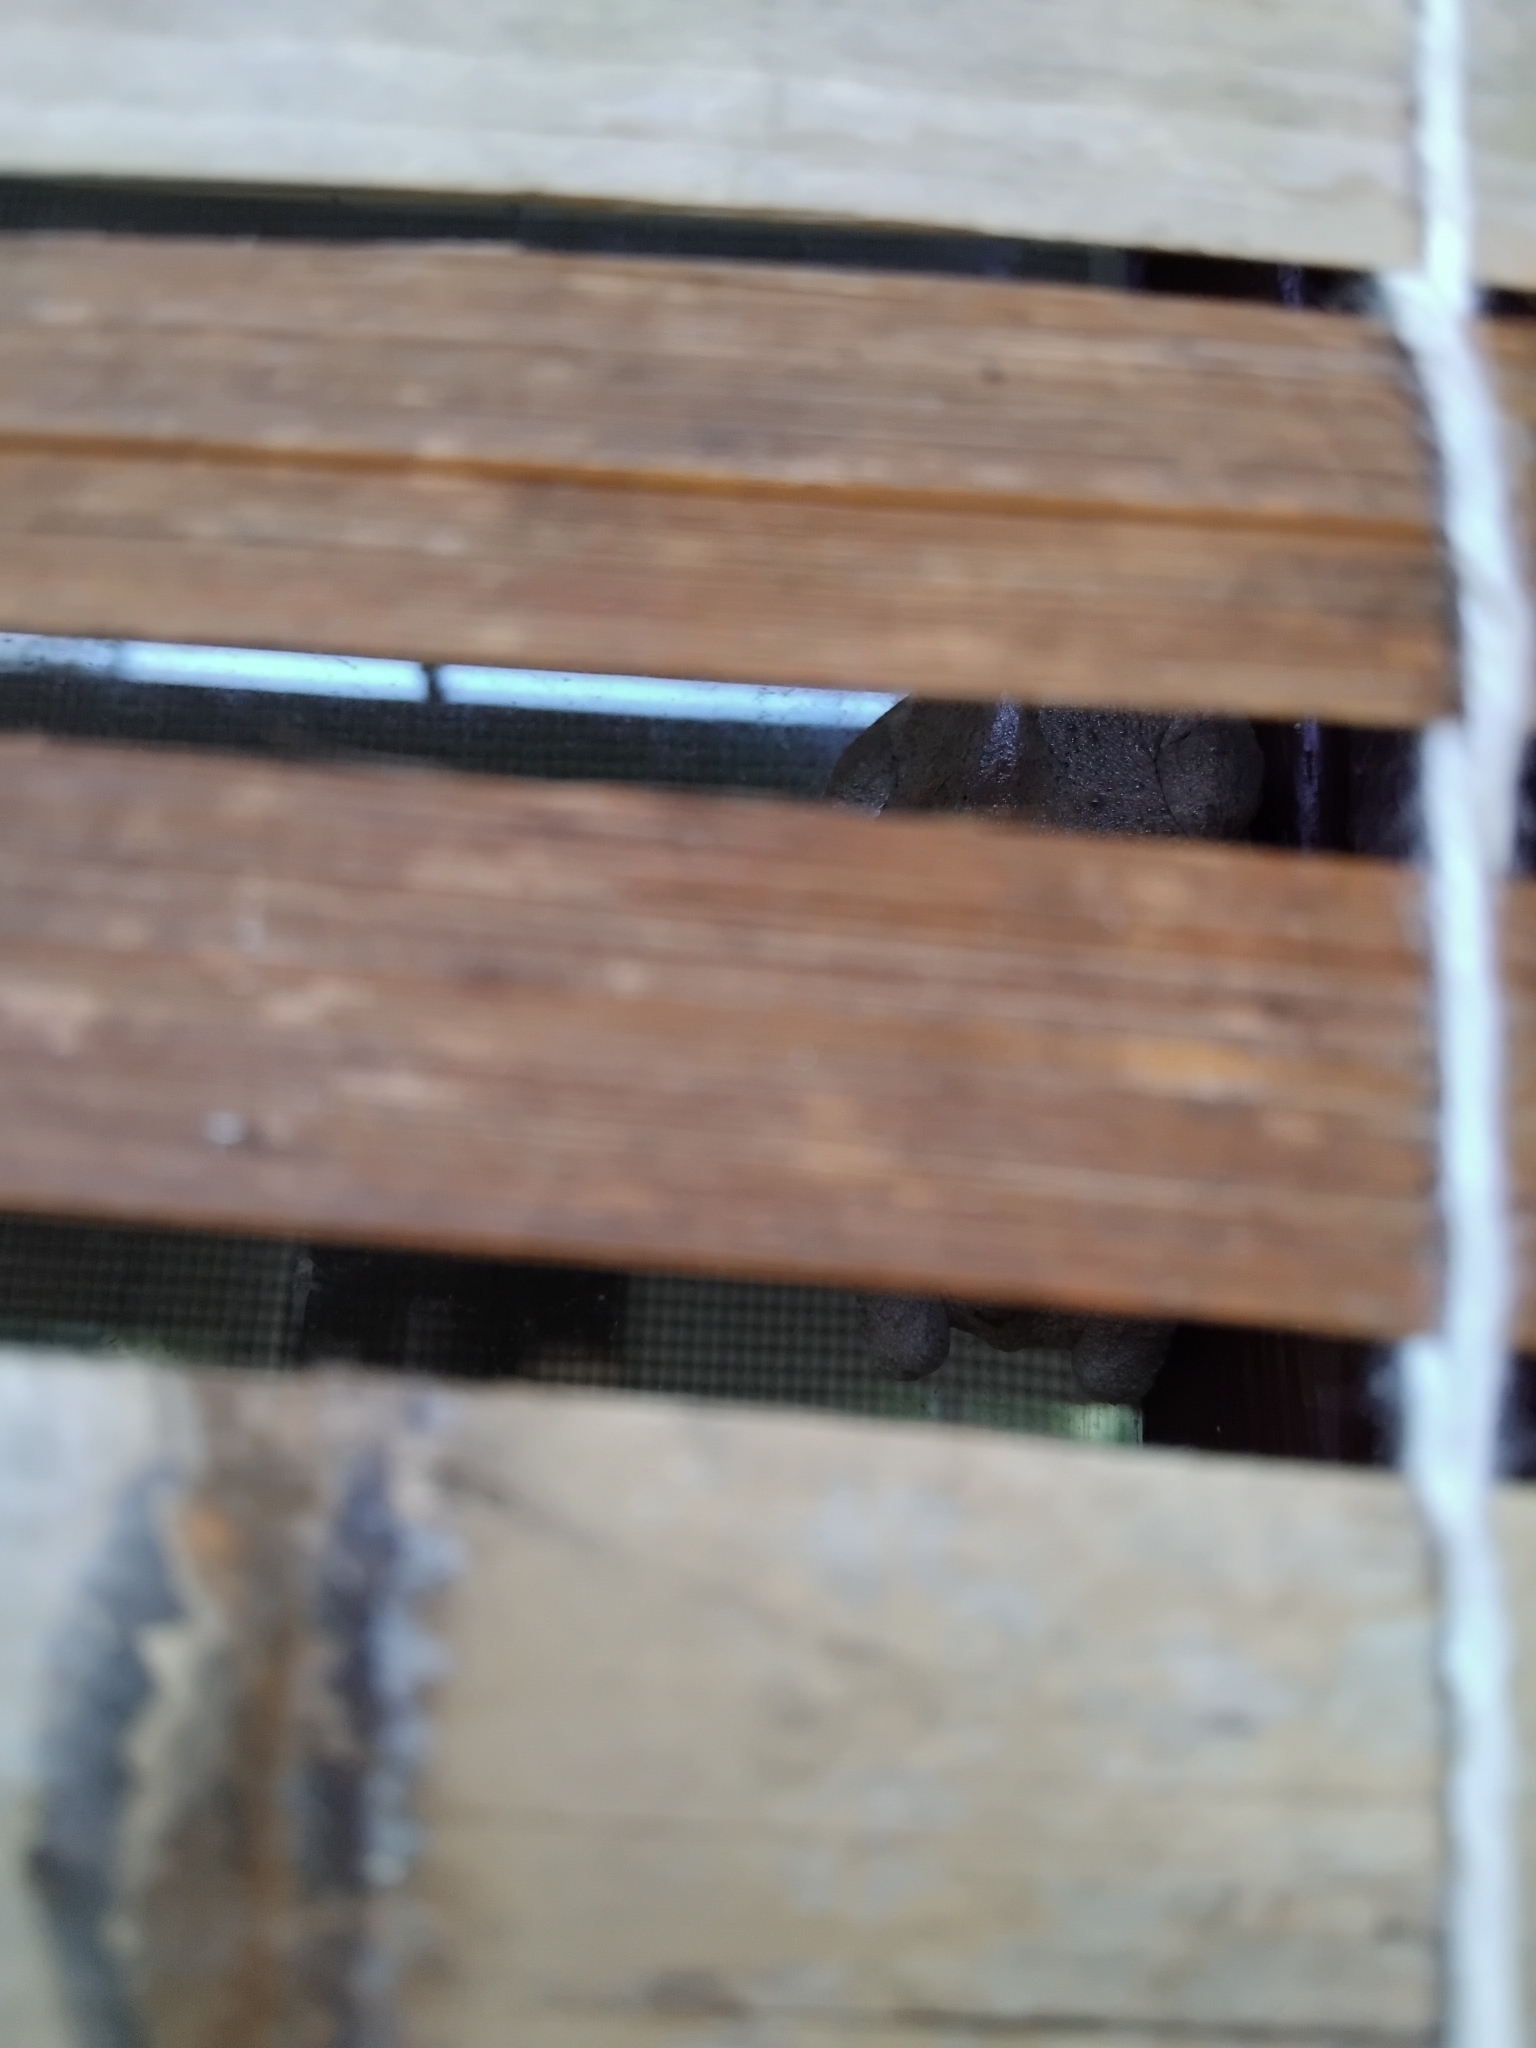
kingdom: Animalia
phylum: Chordata
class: Amphibia
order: Anura
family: Pelodryadidae
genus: Litoria
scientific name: Litoria peronii
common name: Emerald spotted treefrog
